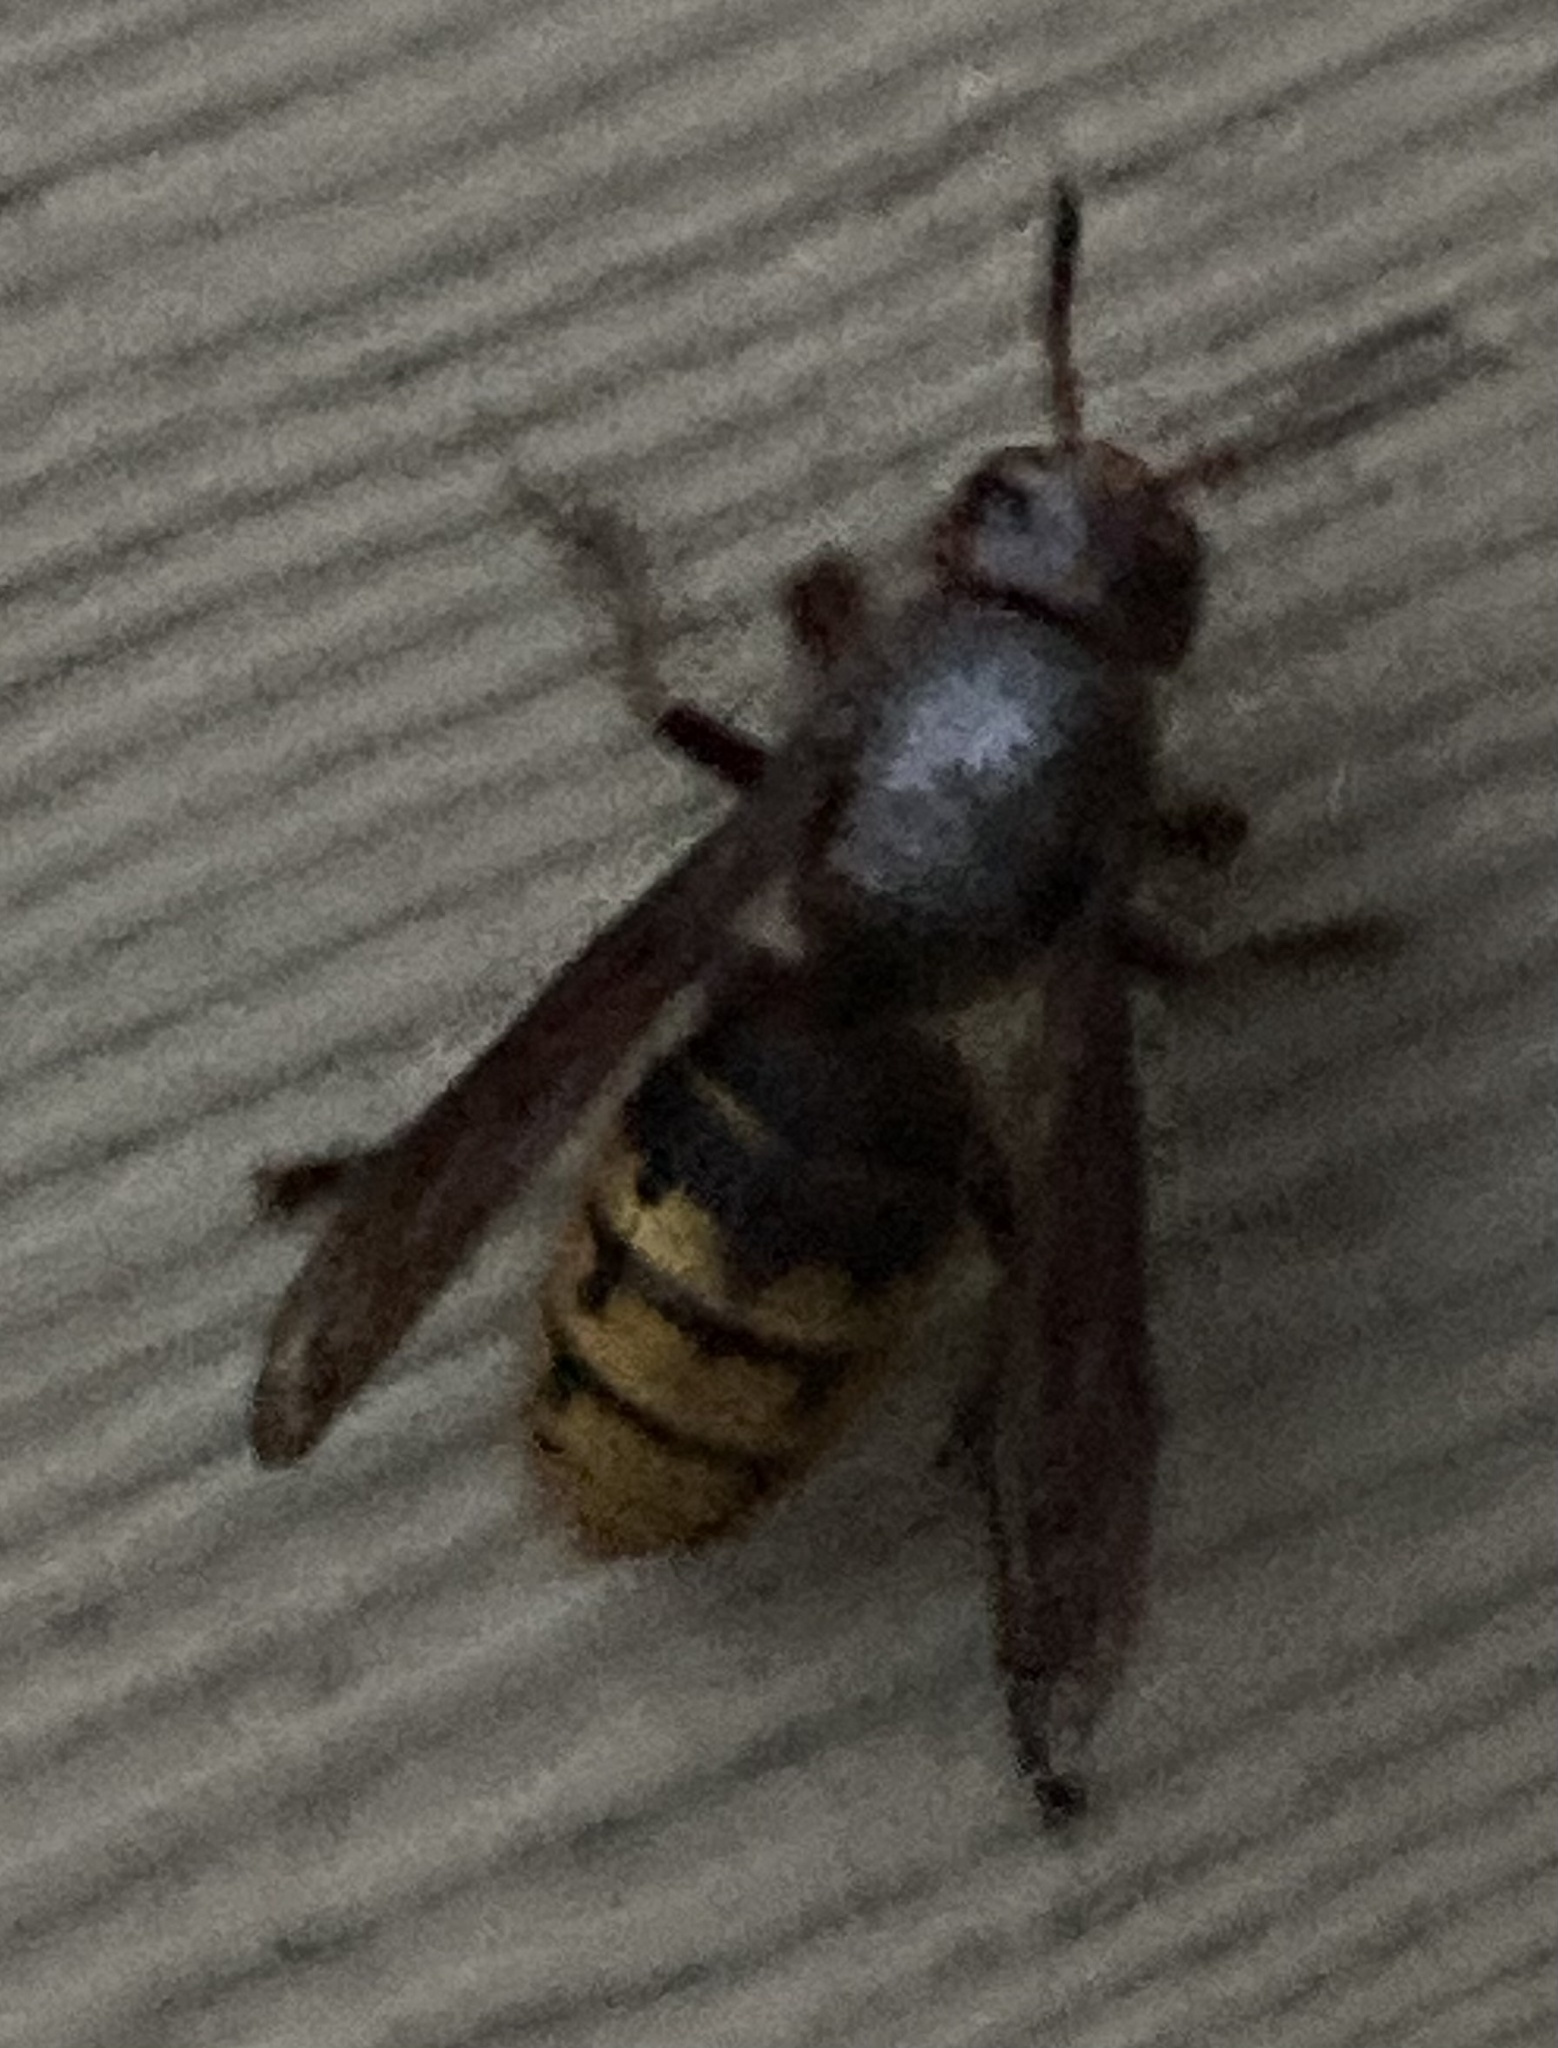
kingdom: Animalia
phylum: Arthropoda
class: Insecta
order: Hymenoptera
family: Vespidae
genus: Vespa
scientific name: Vespa crabro
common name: Hornet
